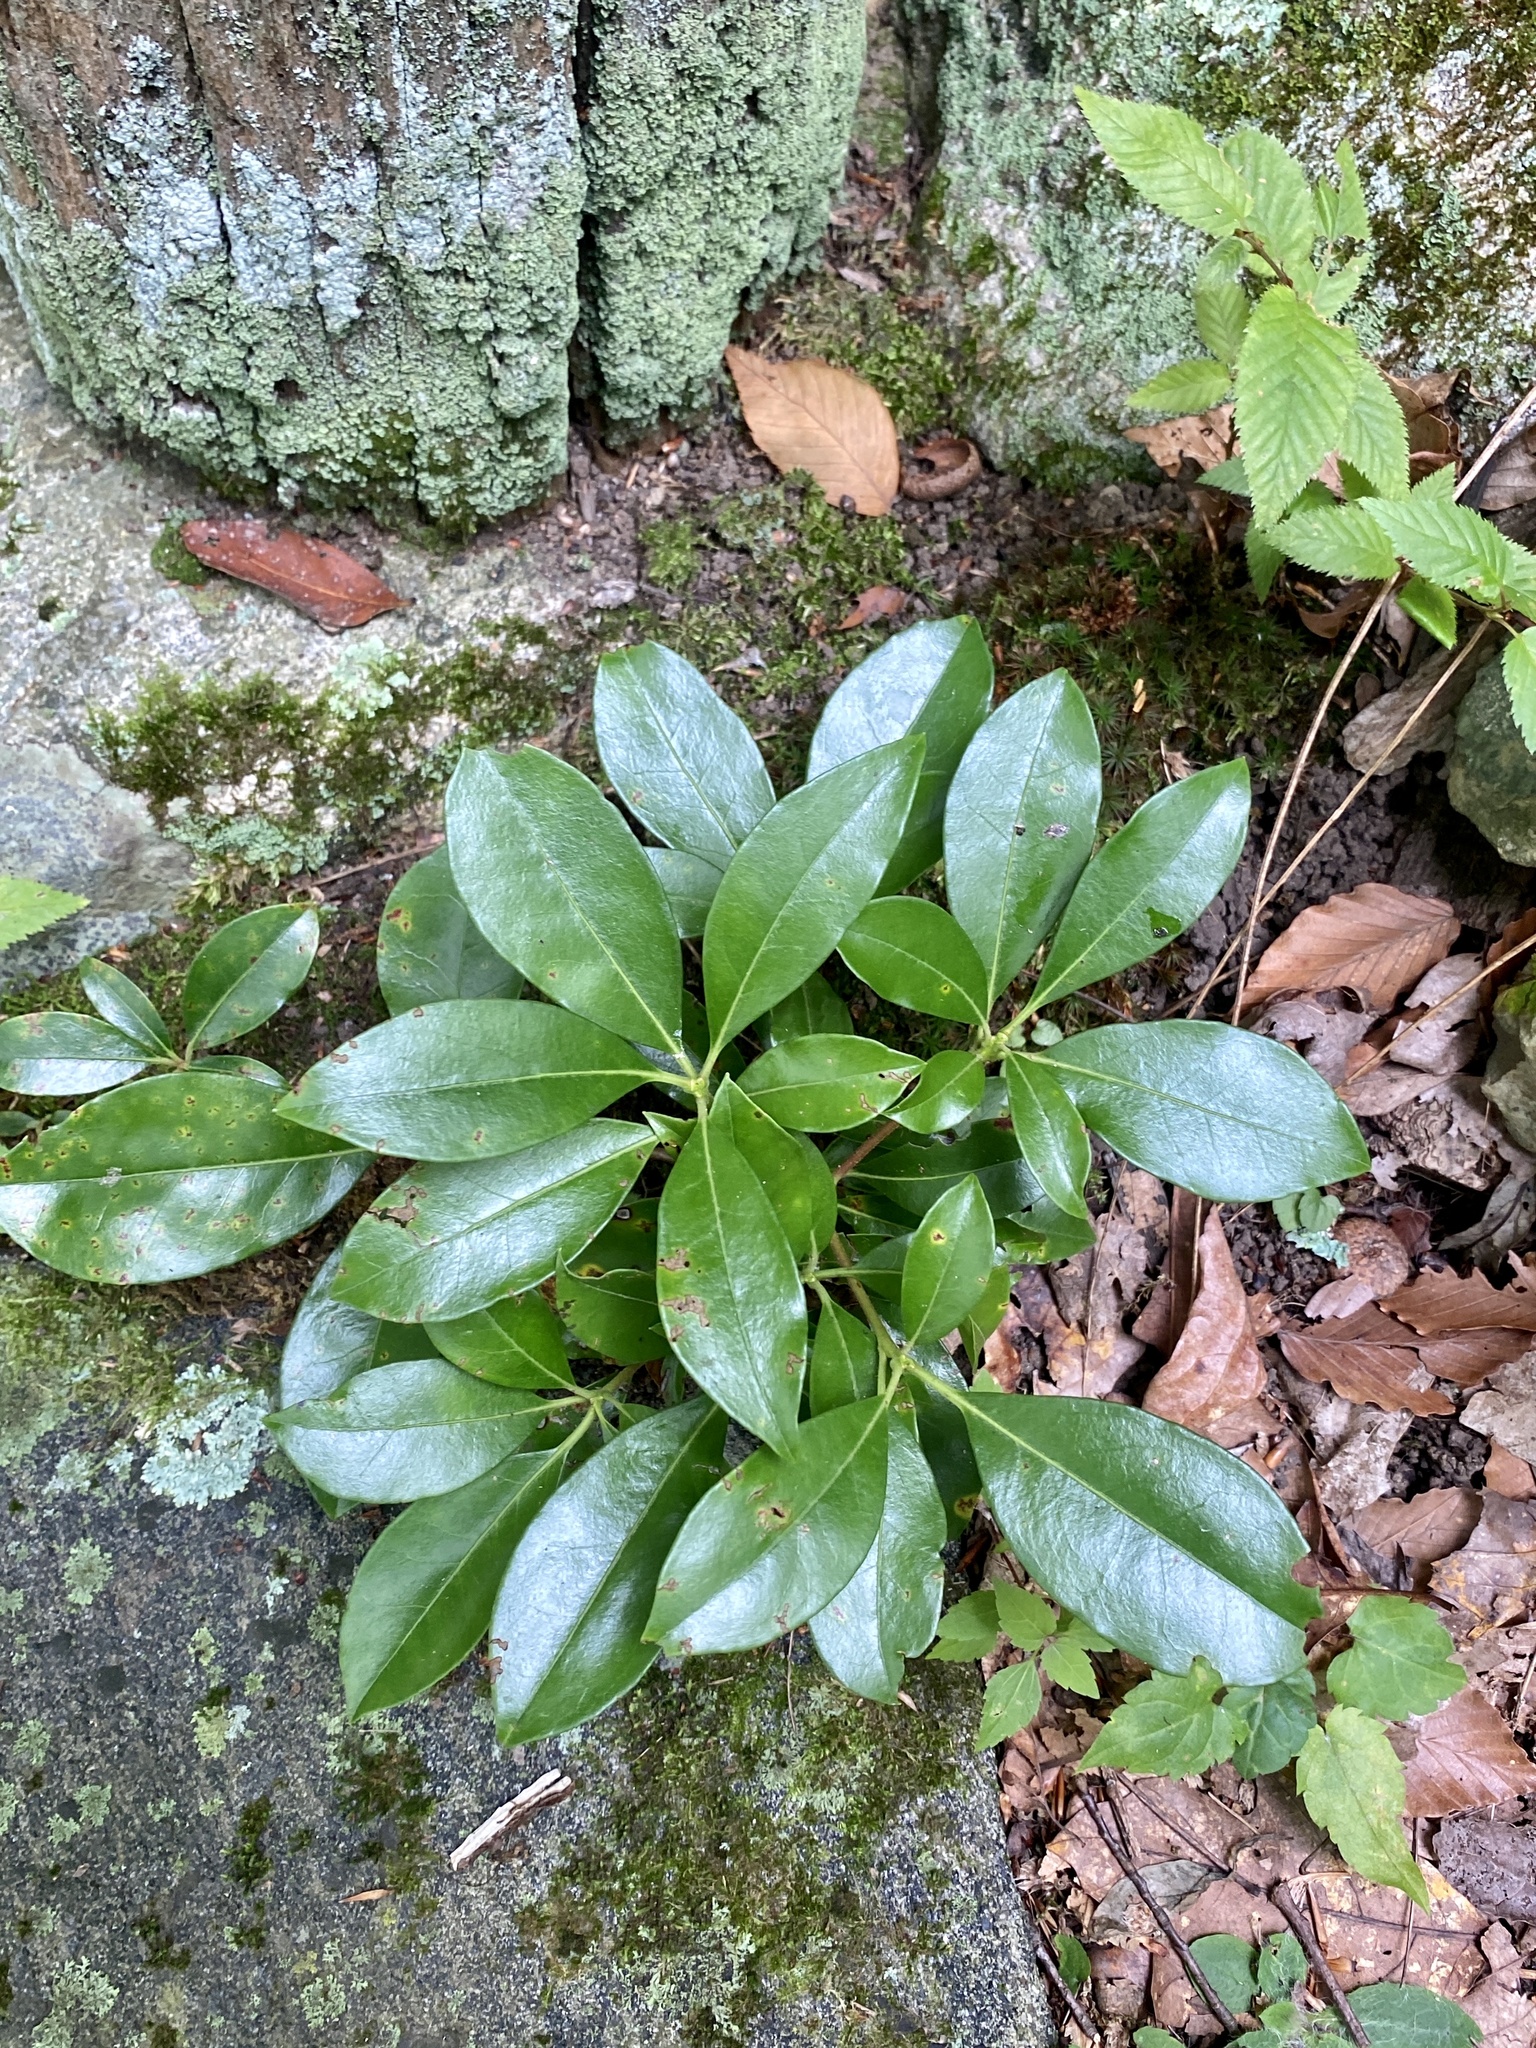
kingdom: Plantae
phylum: Tracheophyta
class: Magnoliopsida
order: Ericales
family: Ericaceae
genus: Kalmia
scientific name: Kalmia latifolia
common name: Mountain-laurel
